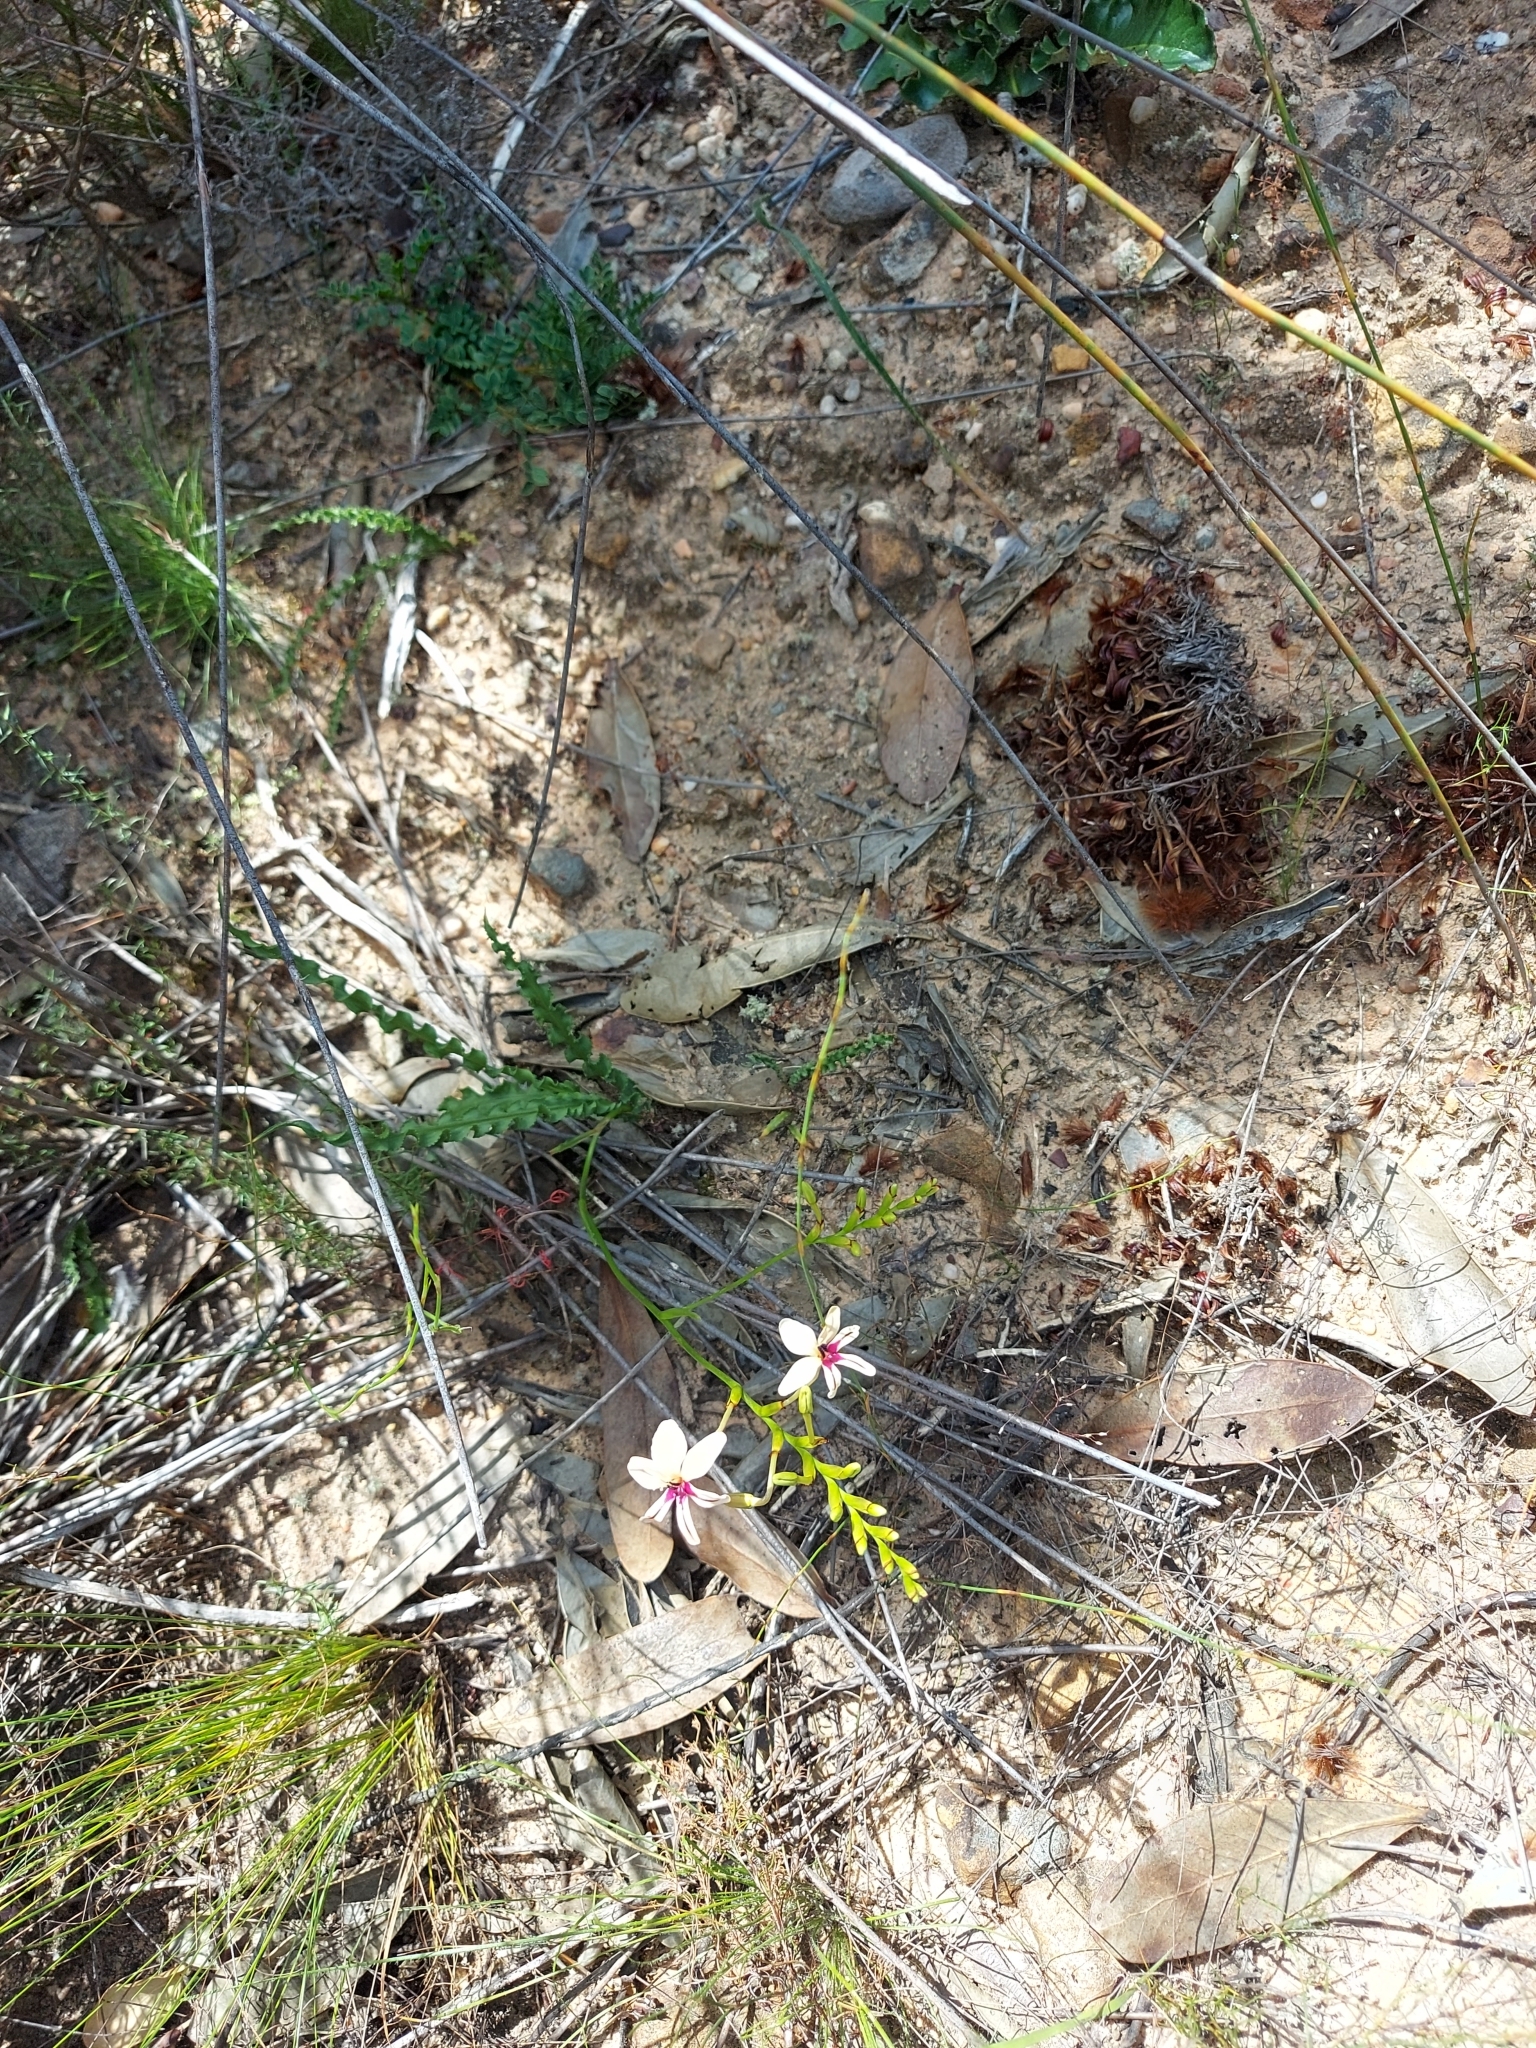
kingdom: Plantae
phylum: Tracheophyta
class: Liliopsida
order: Asparagales
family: Iridaceae
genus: Tritonia
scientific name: Tritonia undulata
